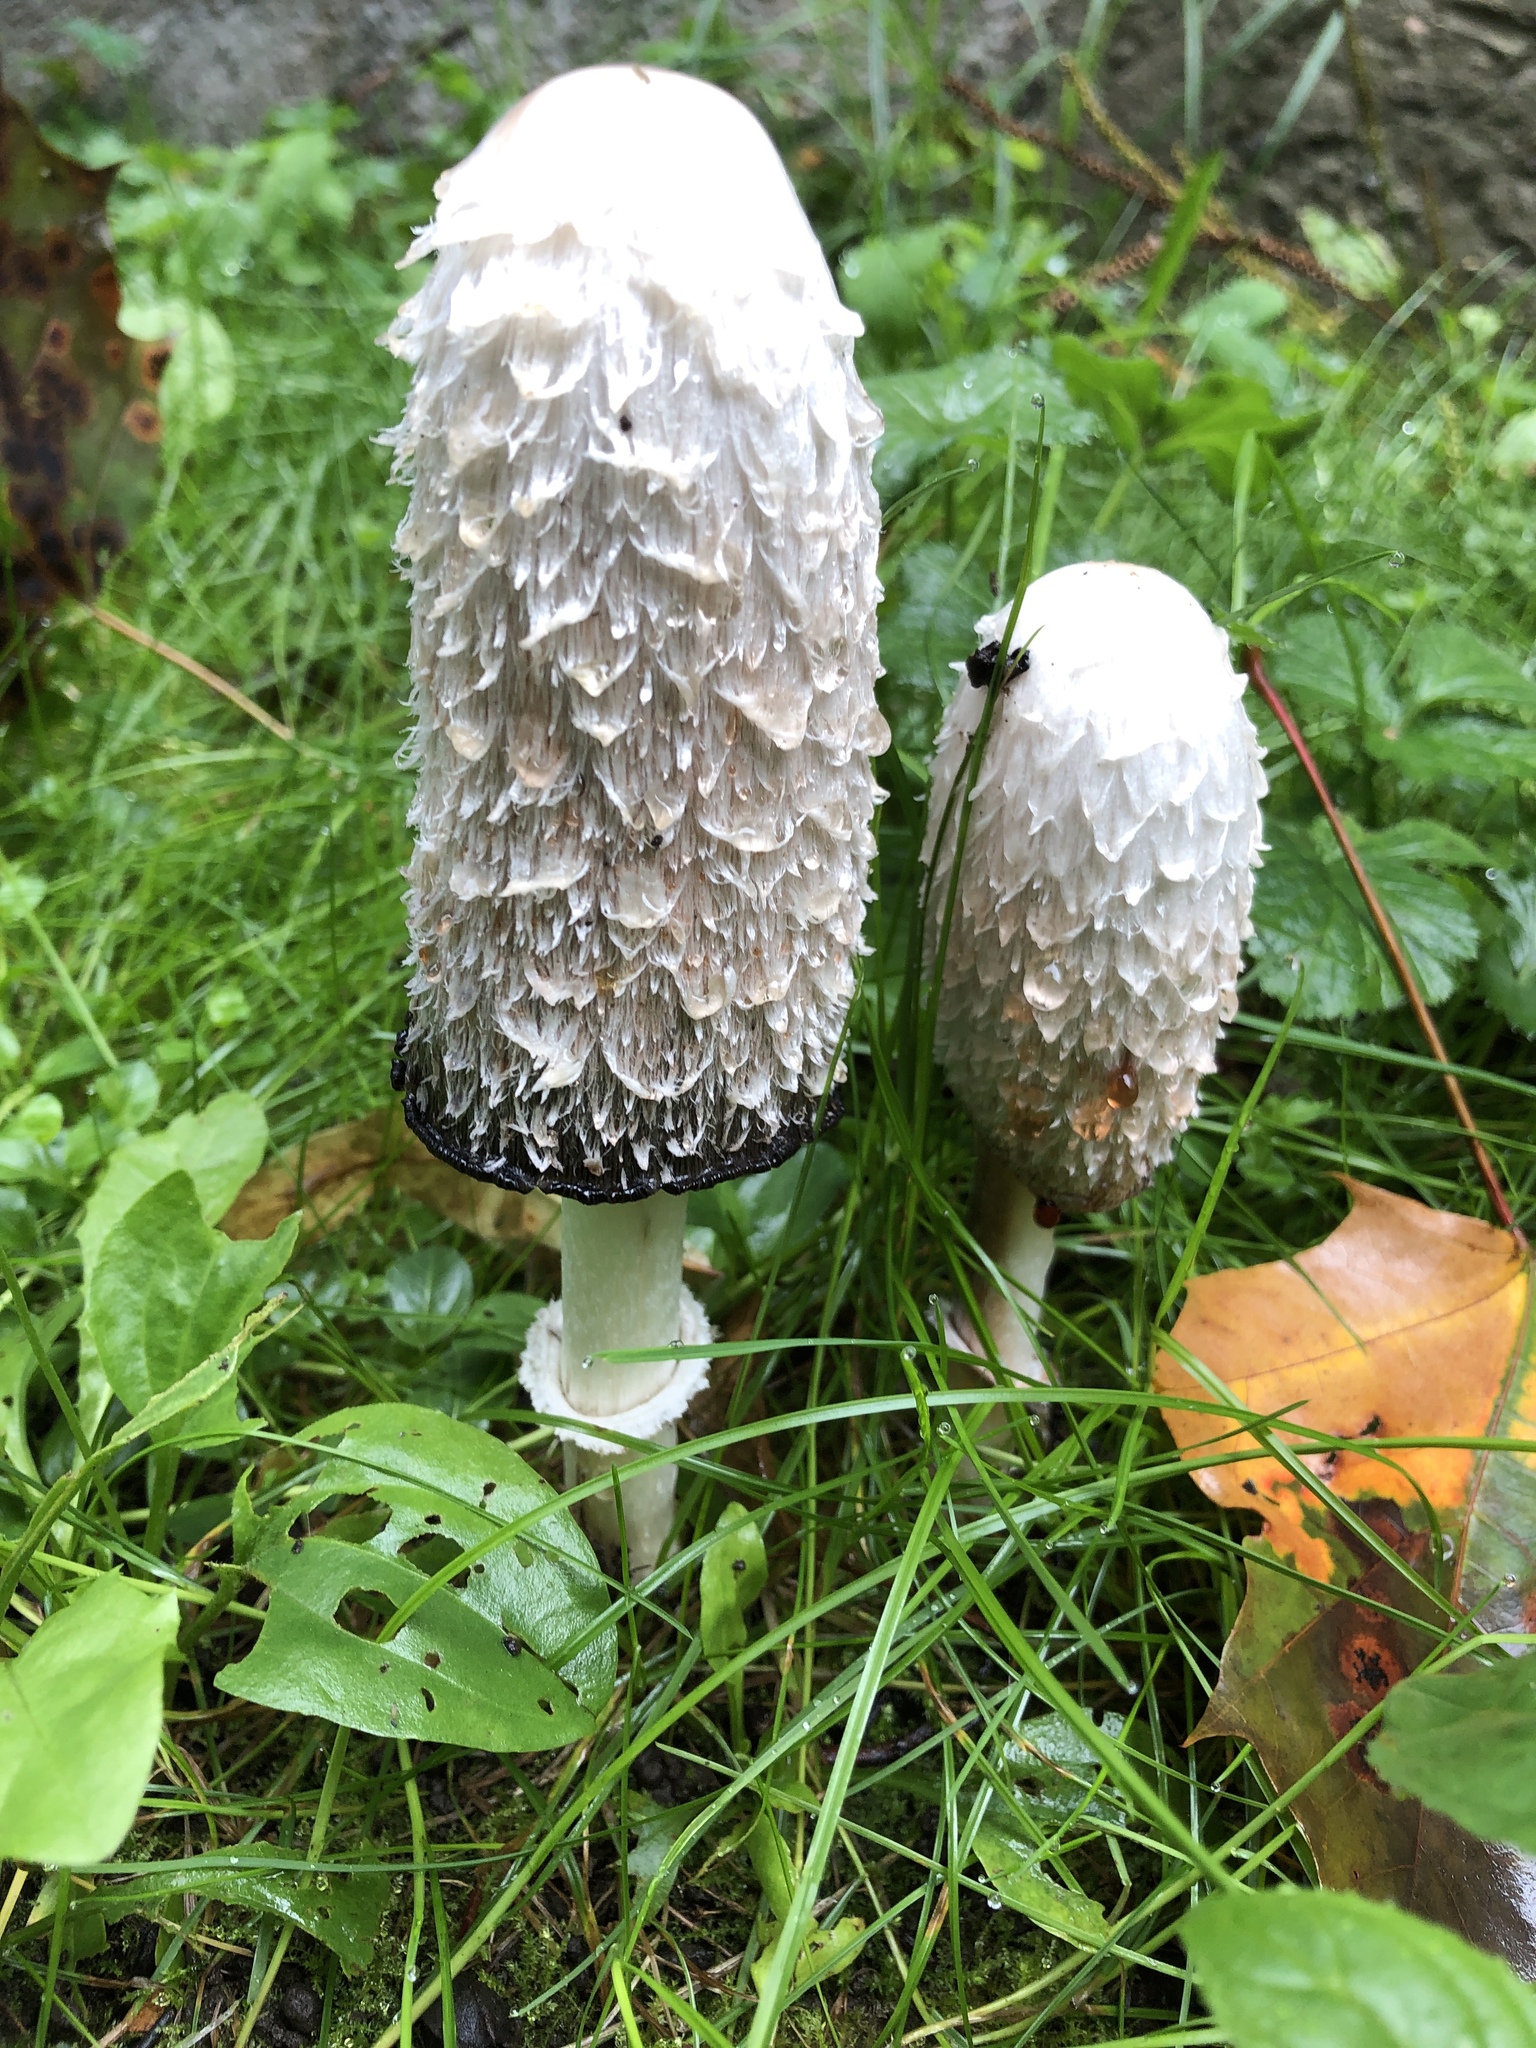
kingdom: Fungi
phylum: Basidiomycota
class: Agaricomycetes
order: Agaricales
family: Agaricaceae
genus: Coprinus
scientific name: Coprinus comatus
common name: Lawyer's wig
